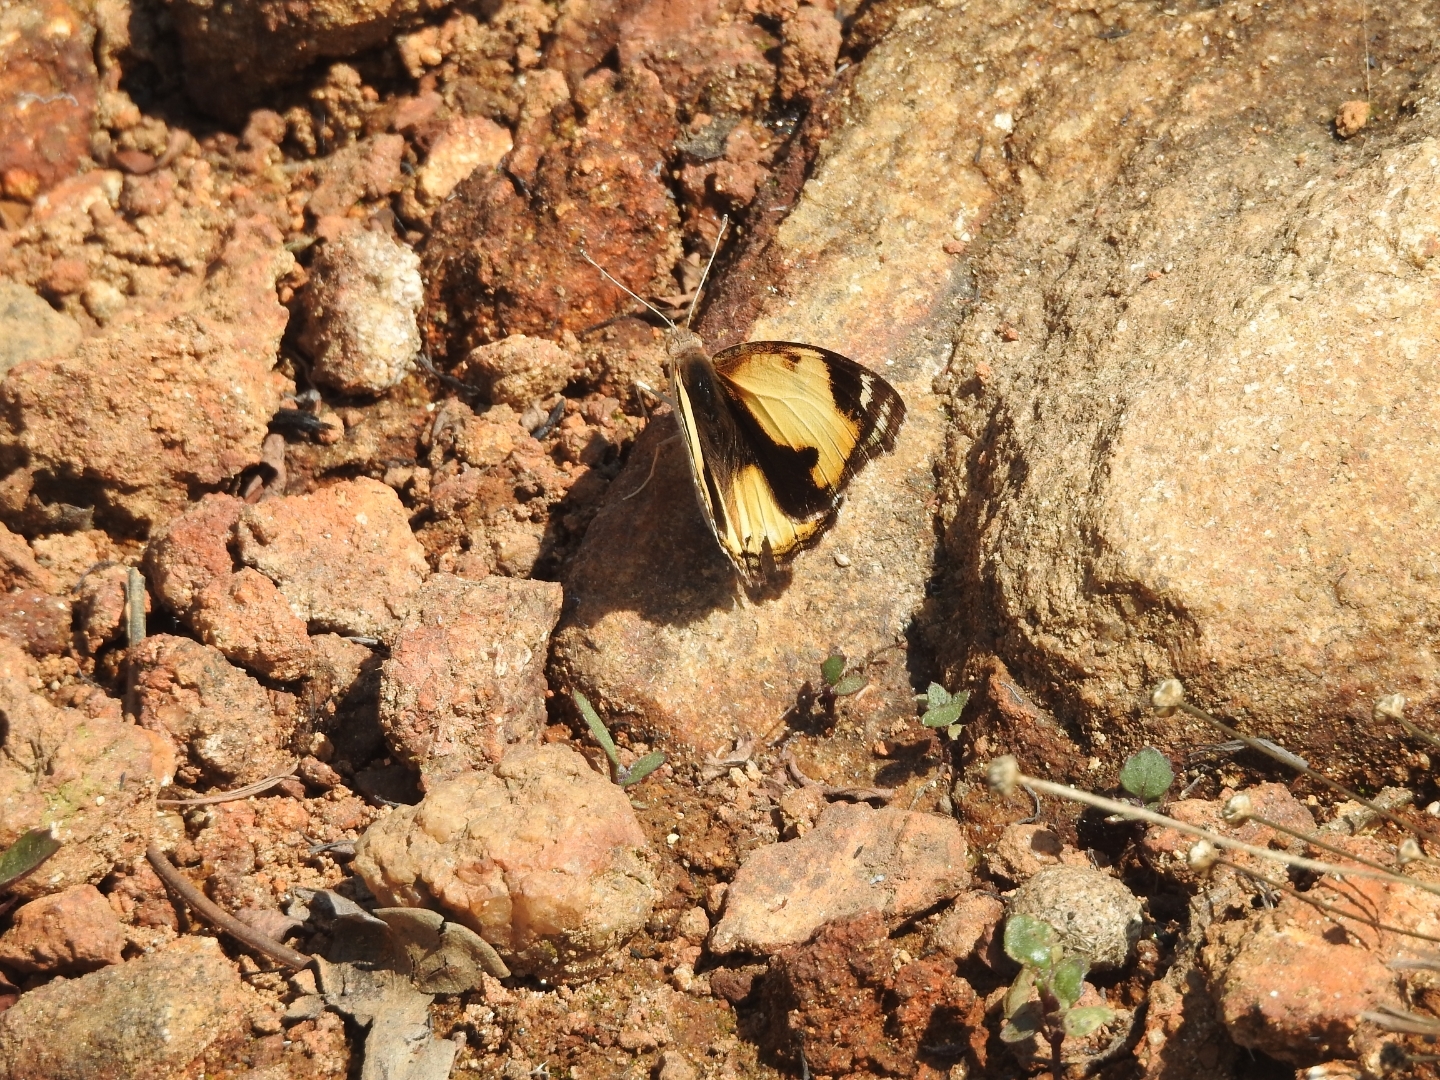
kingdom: Animalia
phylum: Arthropoda
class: Insecta
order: Lepidoptera
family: Nymphalidae
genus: Junonia
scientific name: Junonia hierta
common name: Yellow pansy
